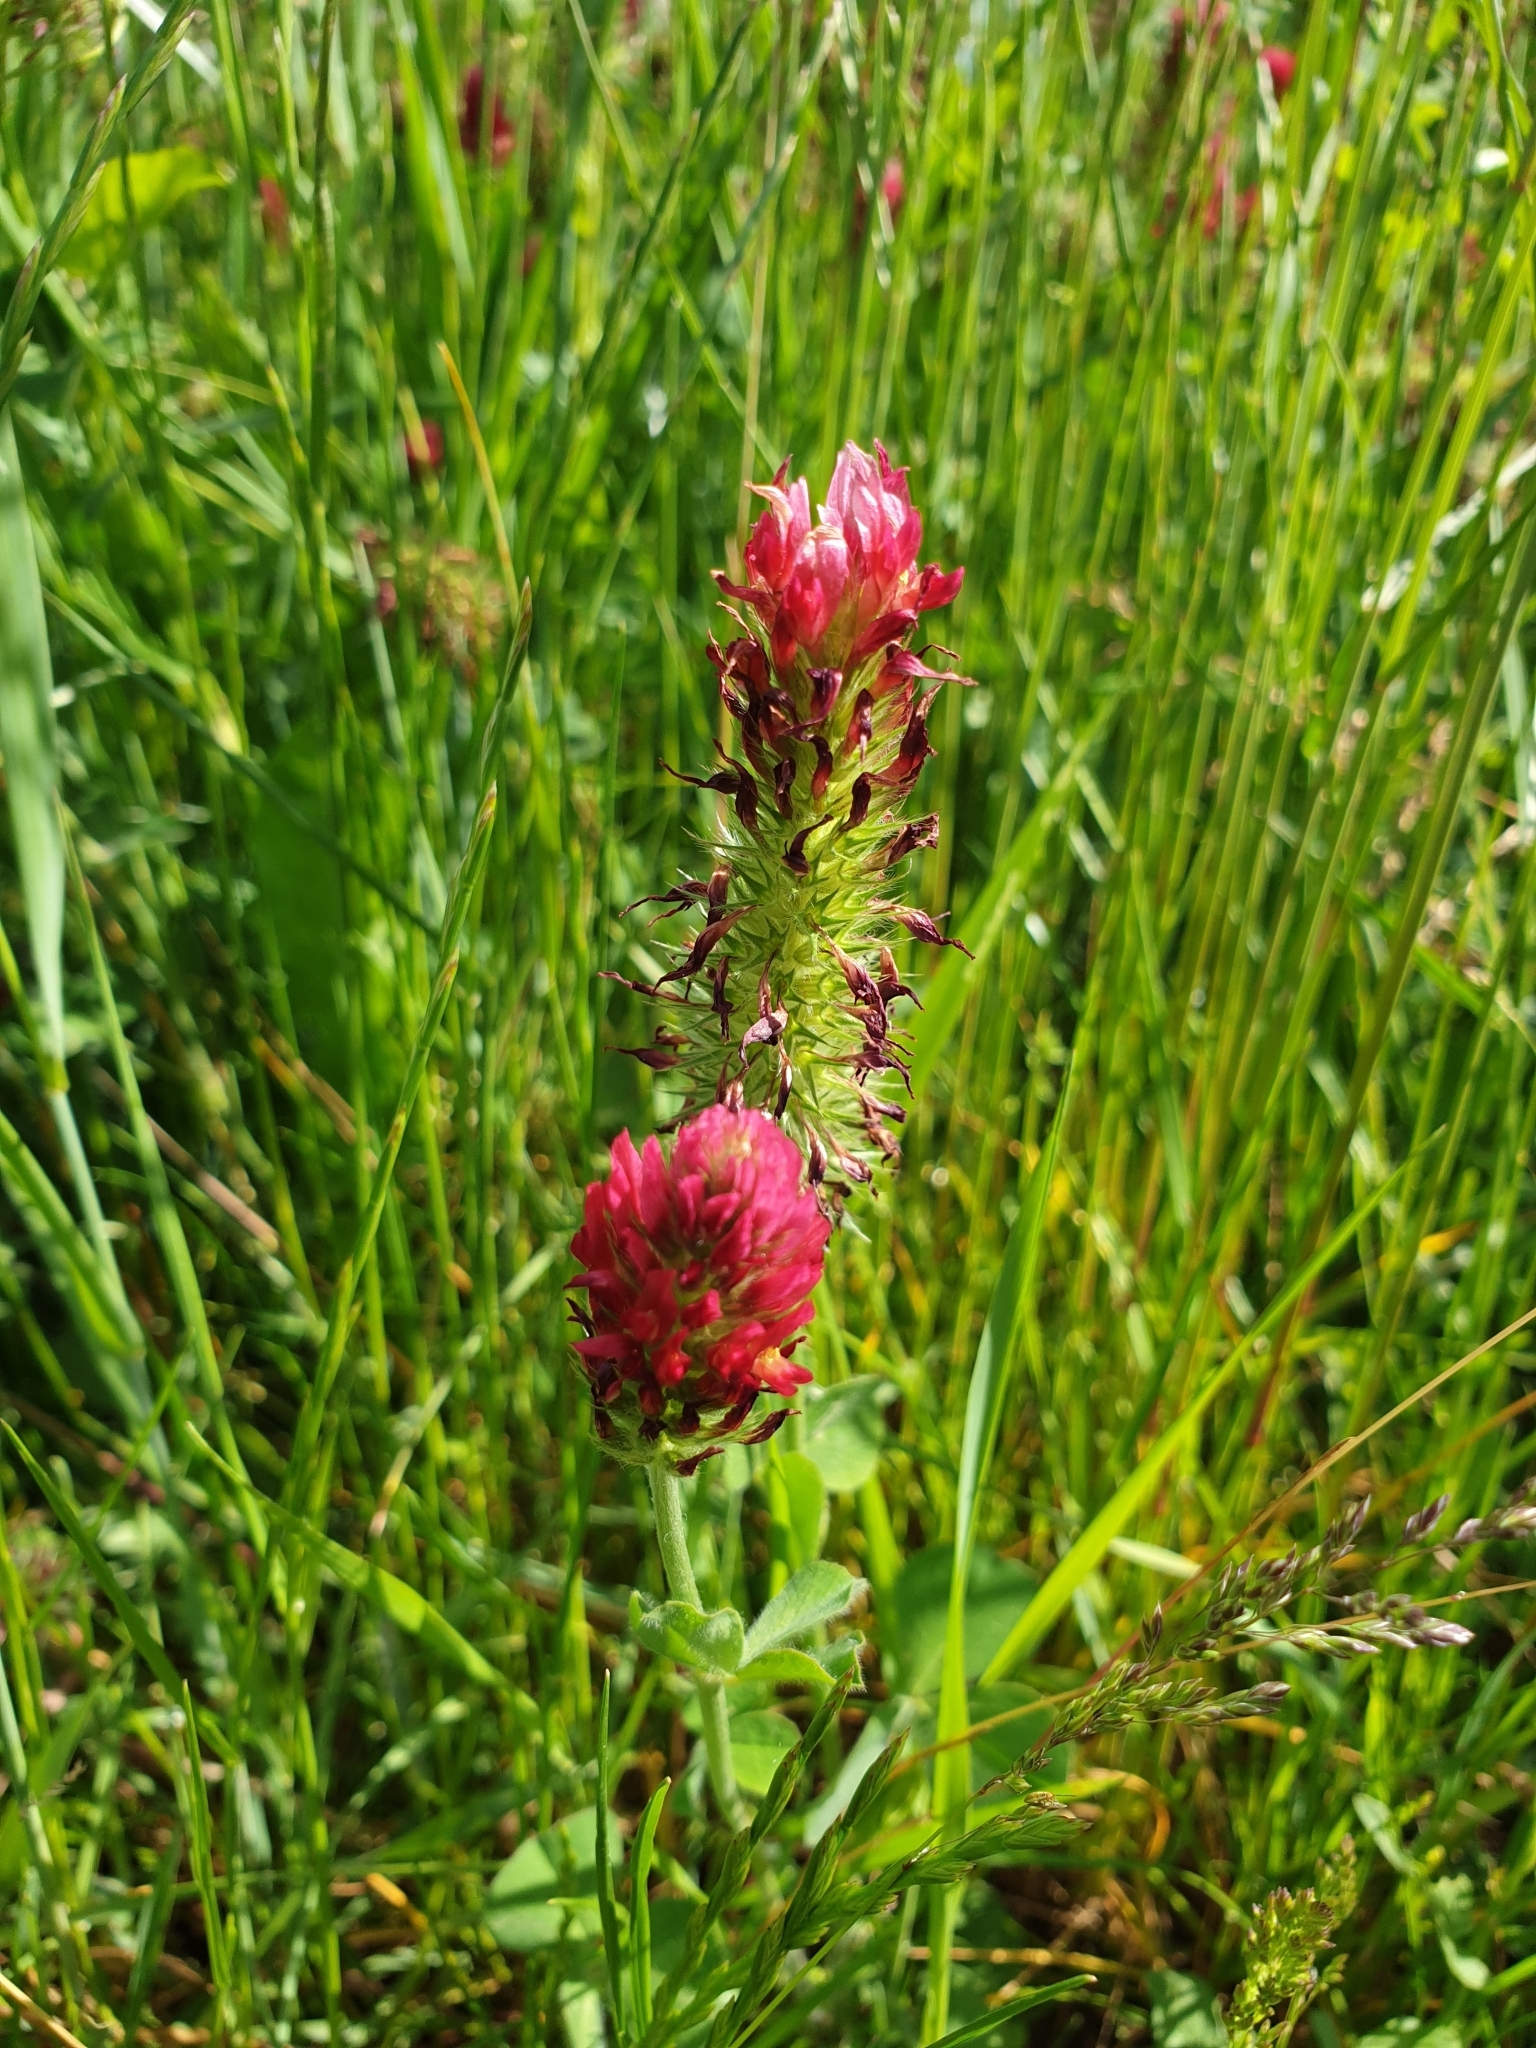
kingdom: Plantae
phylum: Tracheophyta
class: Magnoliopsida
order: Fabales
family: Fabaceae
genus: Trifolium
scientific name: Trifolium incarnatum
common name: Crimson clover
